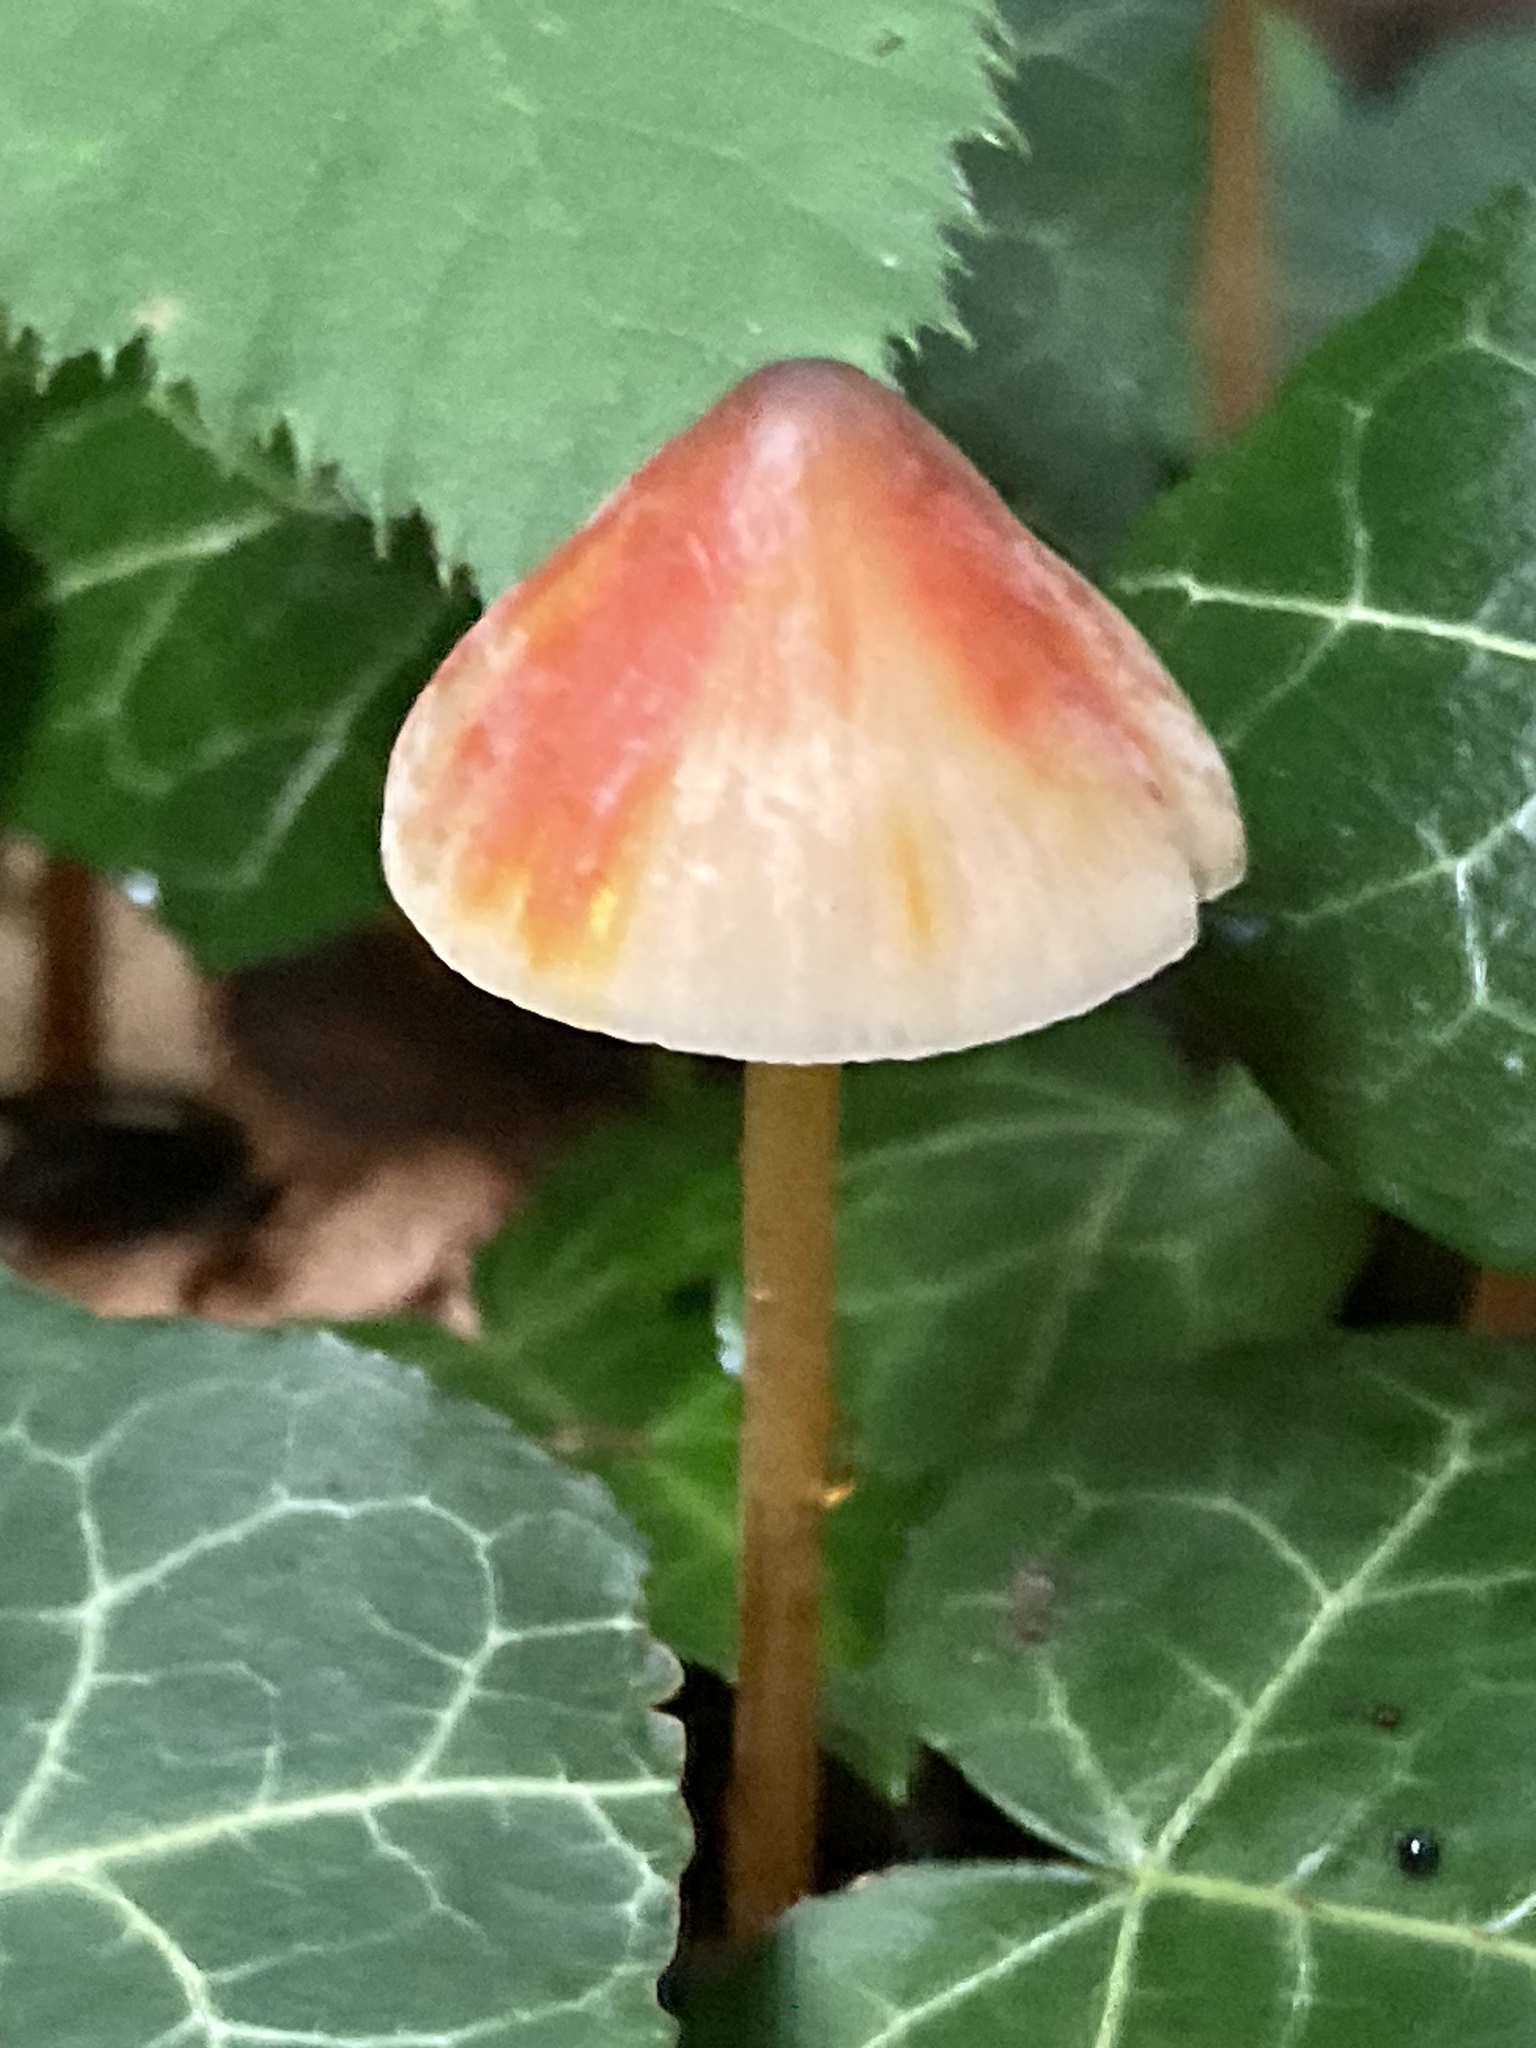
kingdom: Fungi
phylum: Basidiomycota
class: Agaricomycetes
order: Agaricales
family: Mycenaceae
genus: Mycena
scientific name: Mycena crocata
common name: Saffrondrop bonnet
